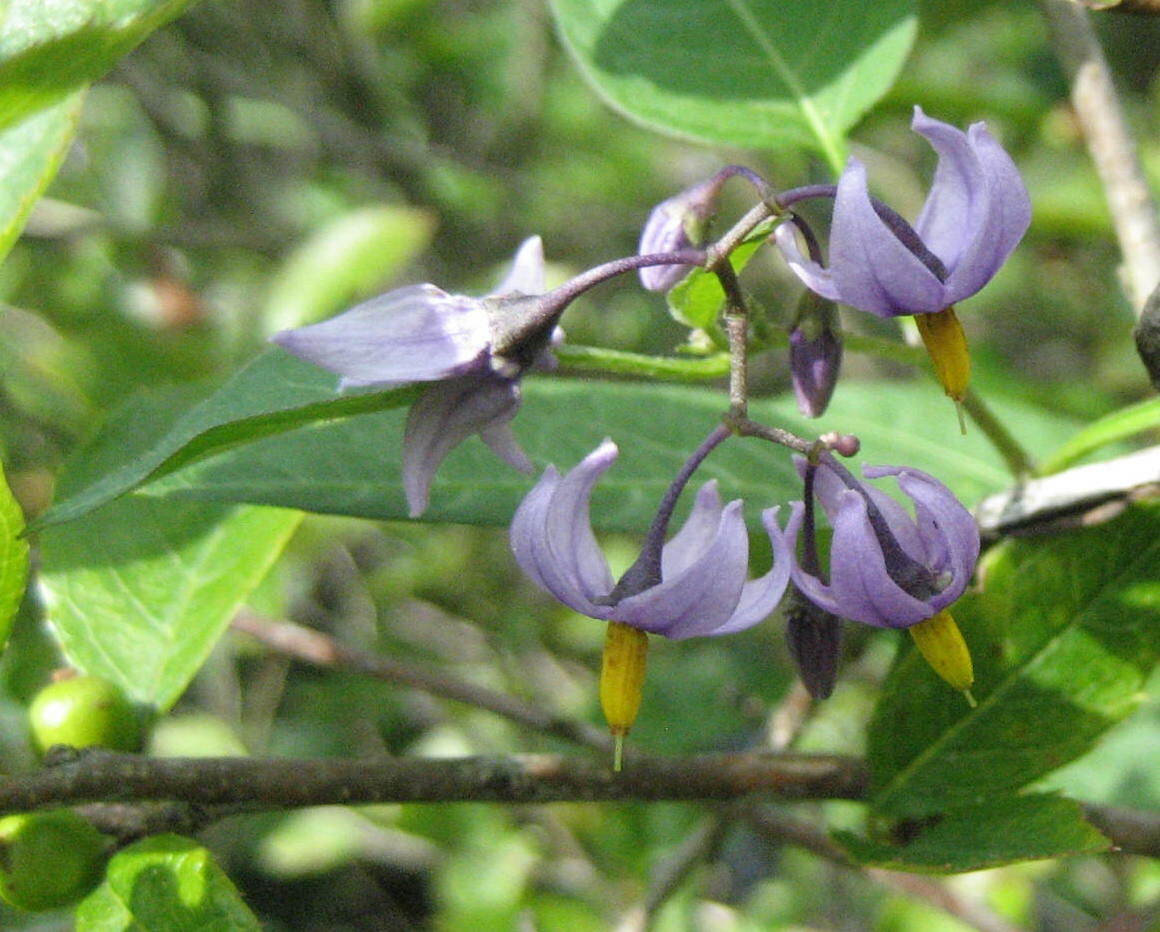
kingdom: Plantae
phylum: Tracheophyta
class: Magnoliopsida
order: Solanales
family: Solanaceae
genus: Solanum
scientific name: Solanum dulcamara
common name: Climbing nightshade
